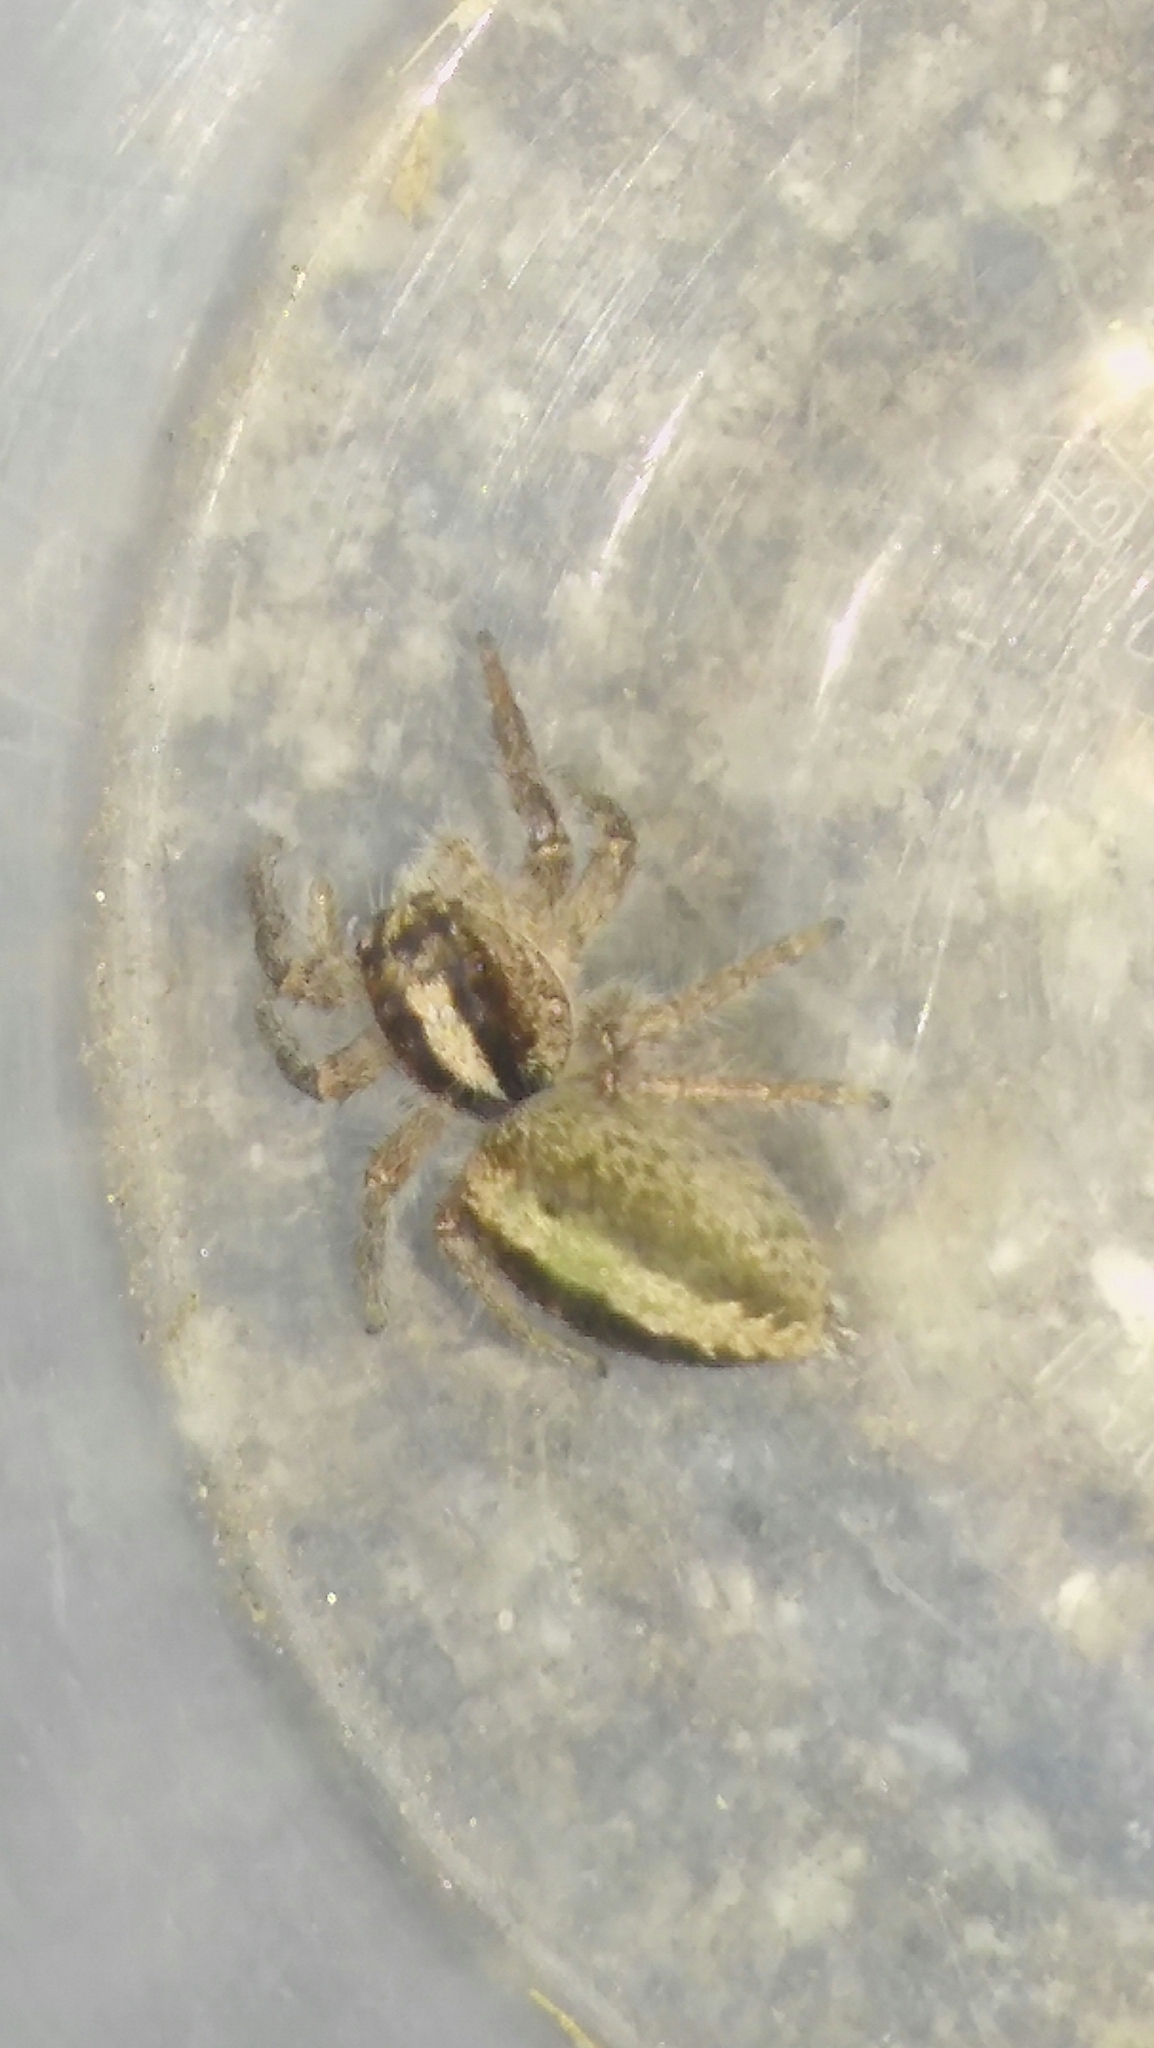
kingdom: Animalia
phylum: Arthropoda
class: Arachnida
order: Araneae
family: Salticidae
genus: Megafreya
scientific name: Megafreya sutrix
